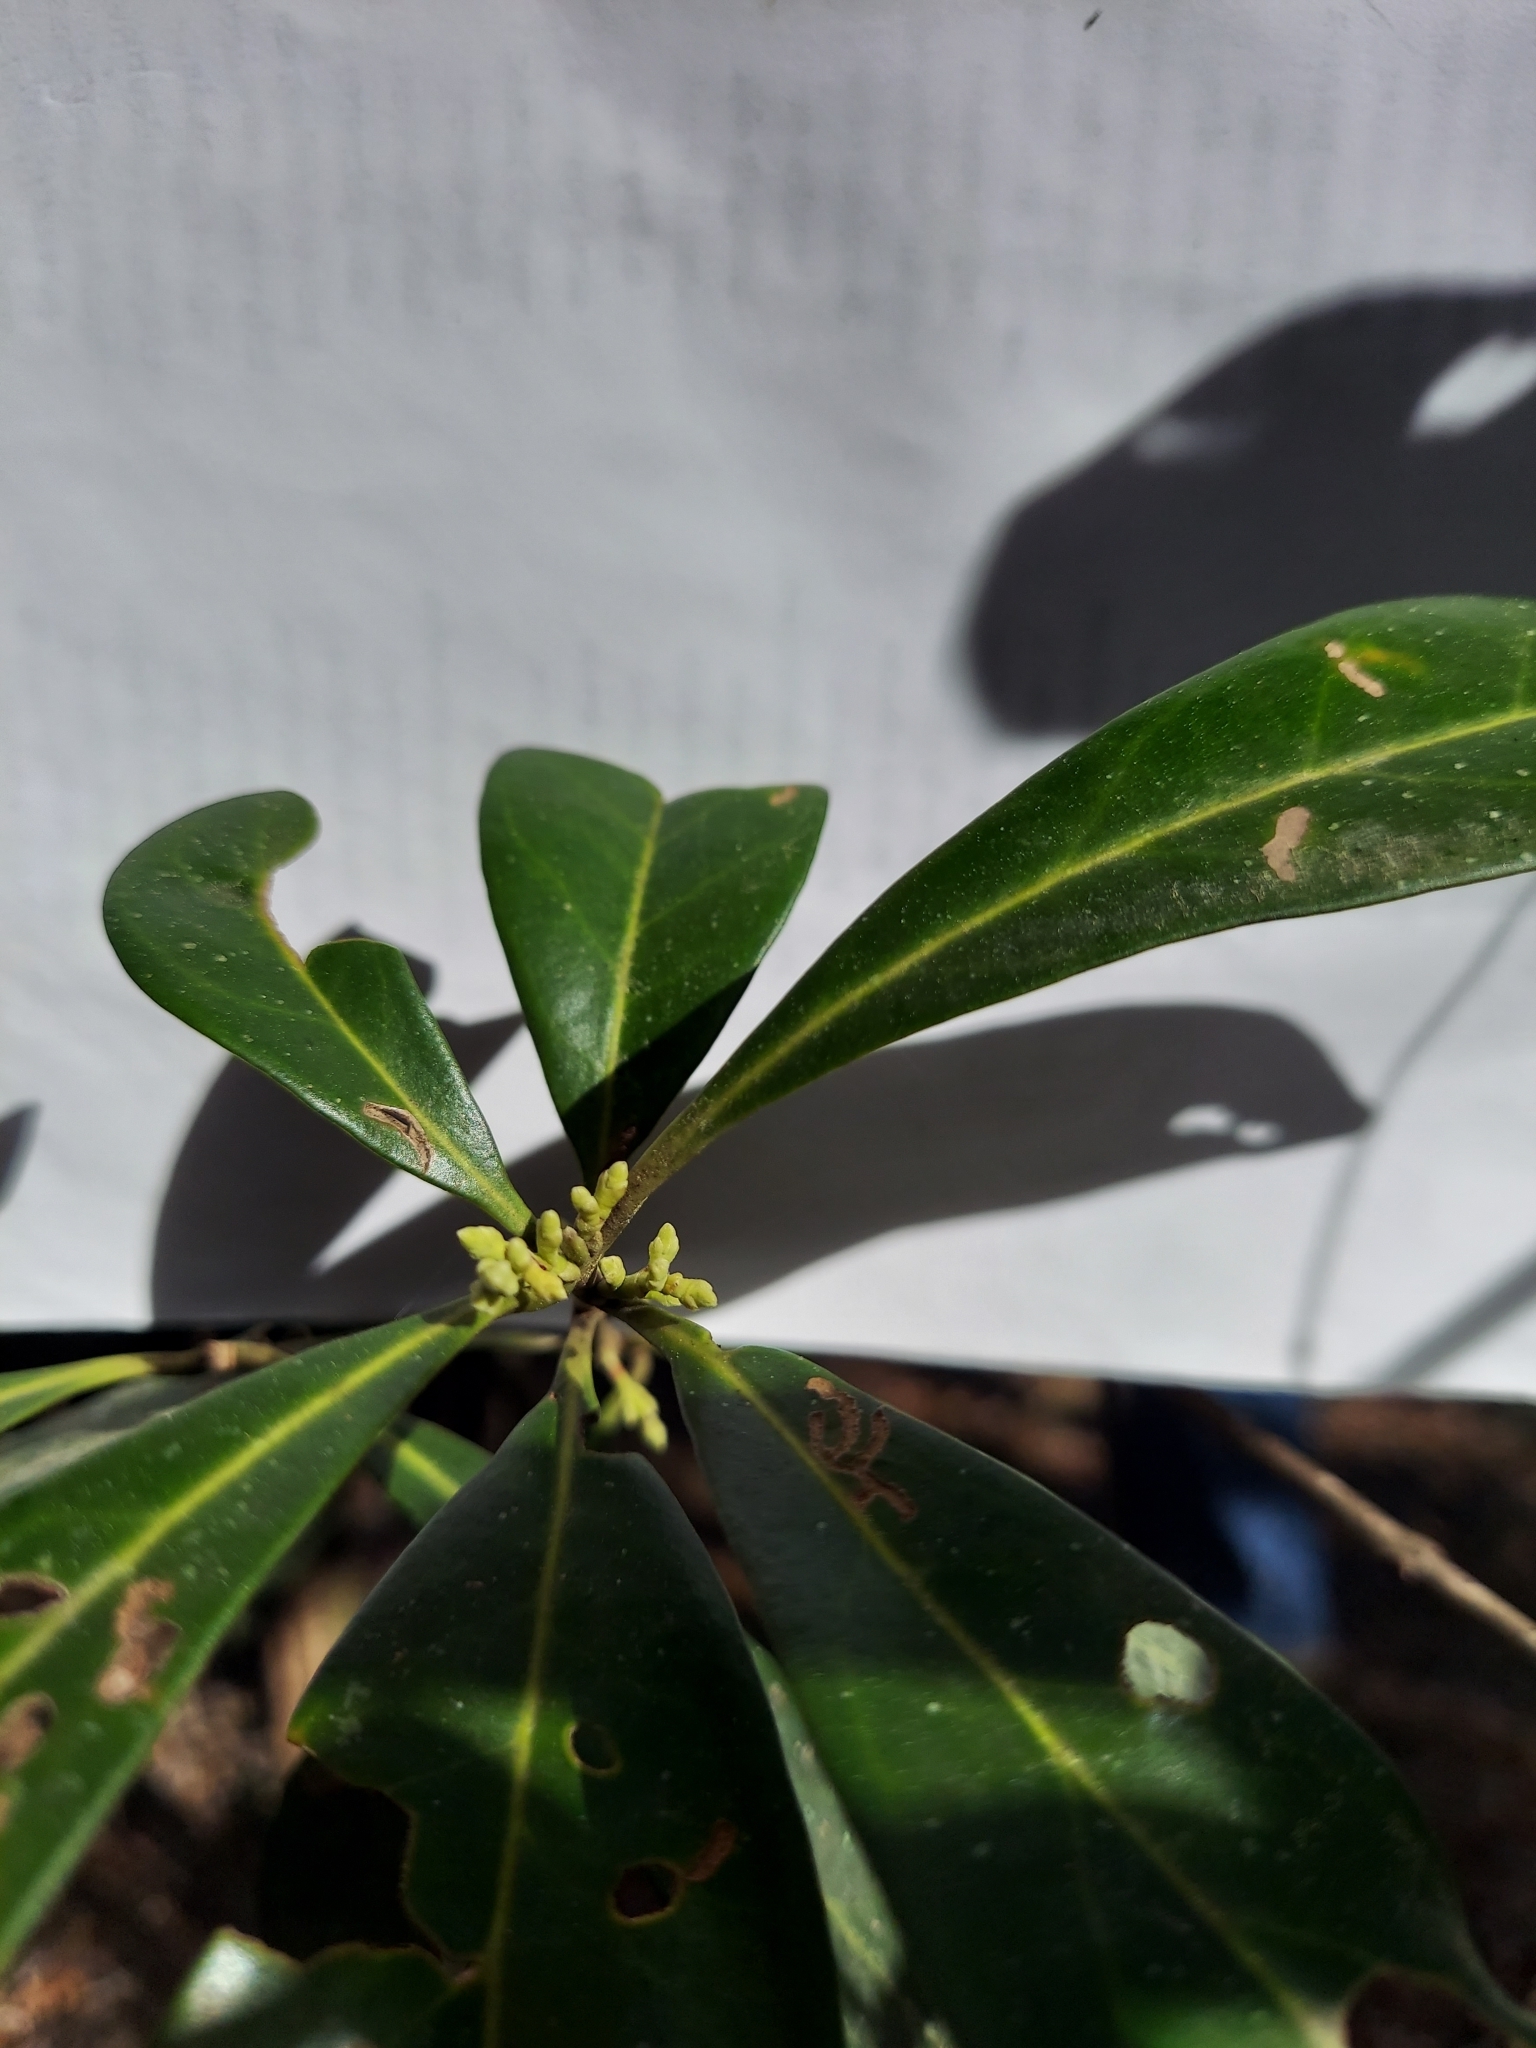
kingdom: Plantae
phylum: Tracheophyta
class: Magnoliopsida
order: Lamiales
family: Oleaceae
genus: Cartrema
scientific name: Cartrema americana
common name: Devilwood
